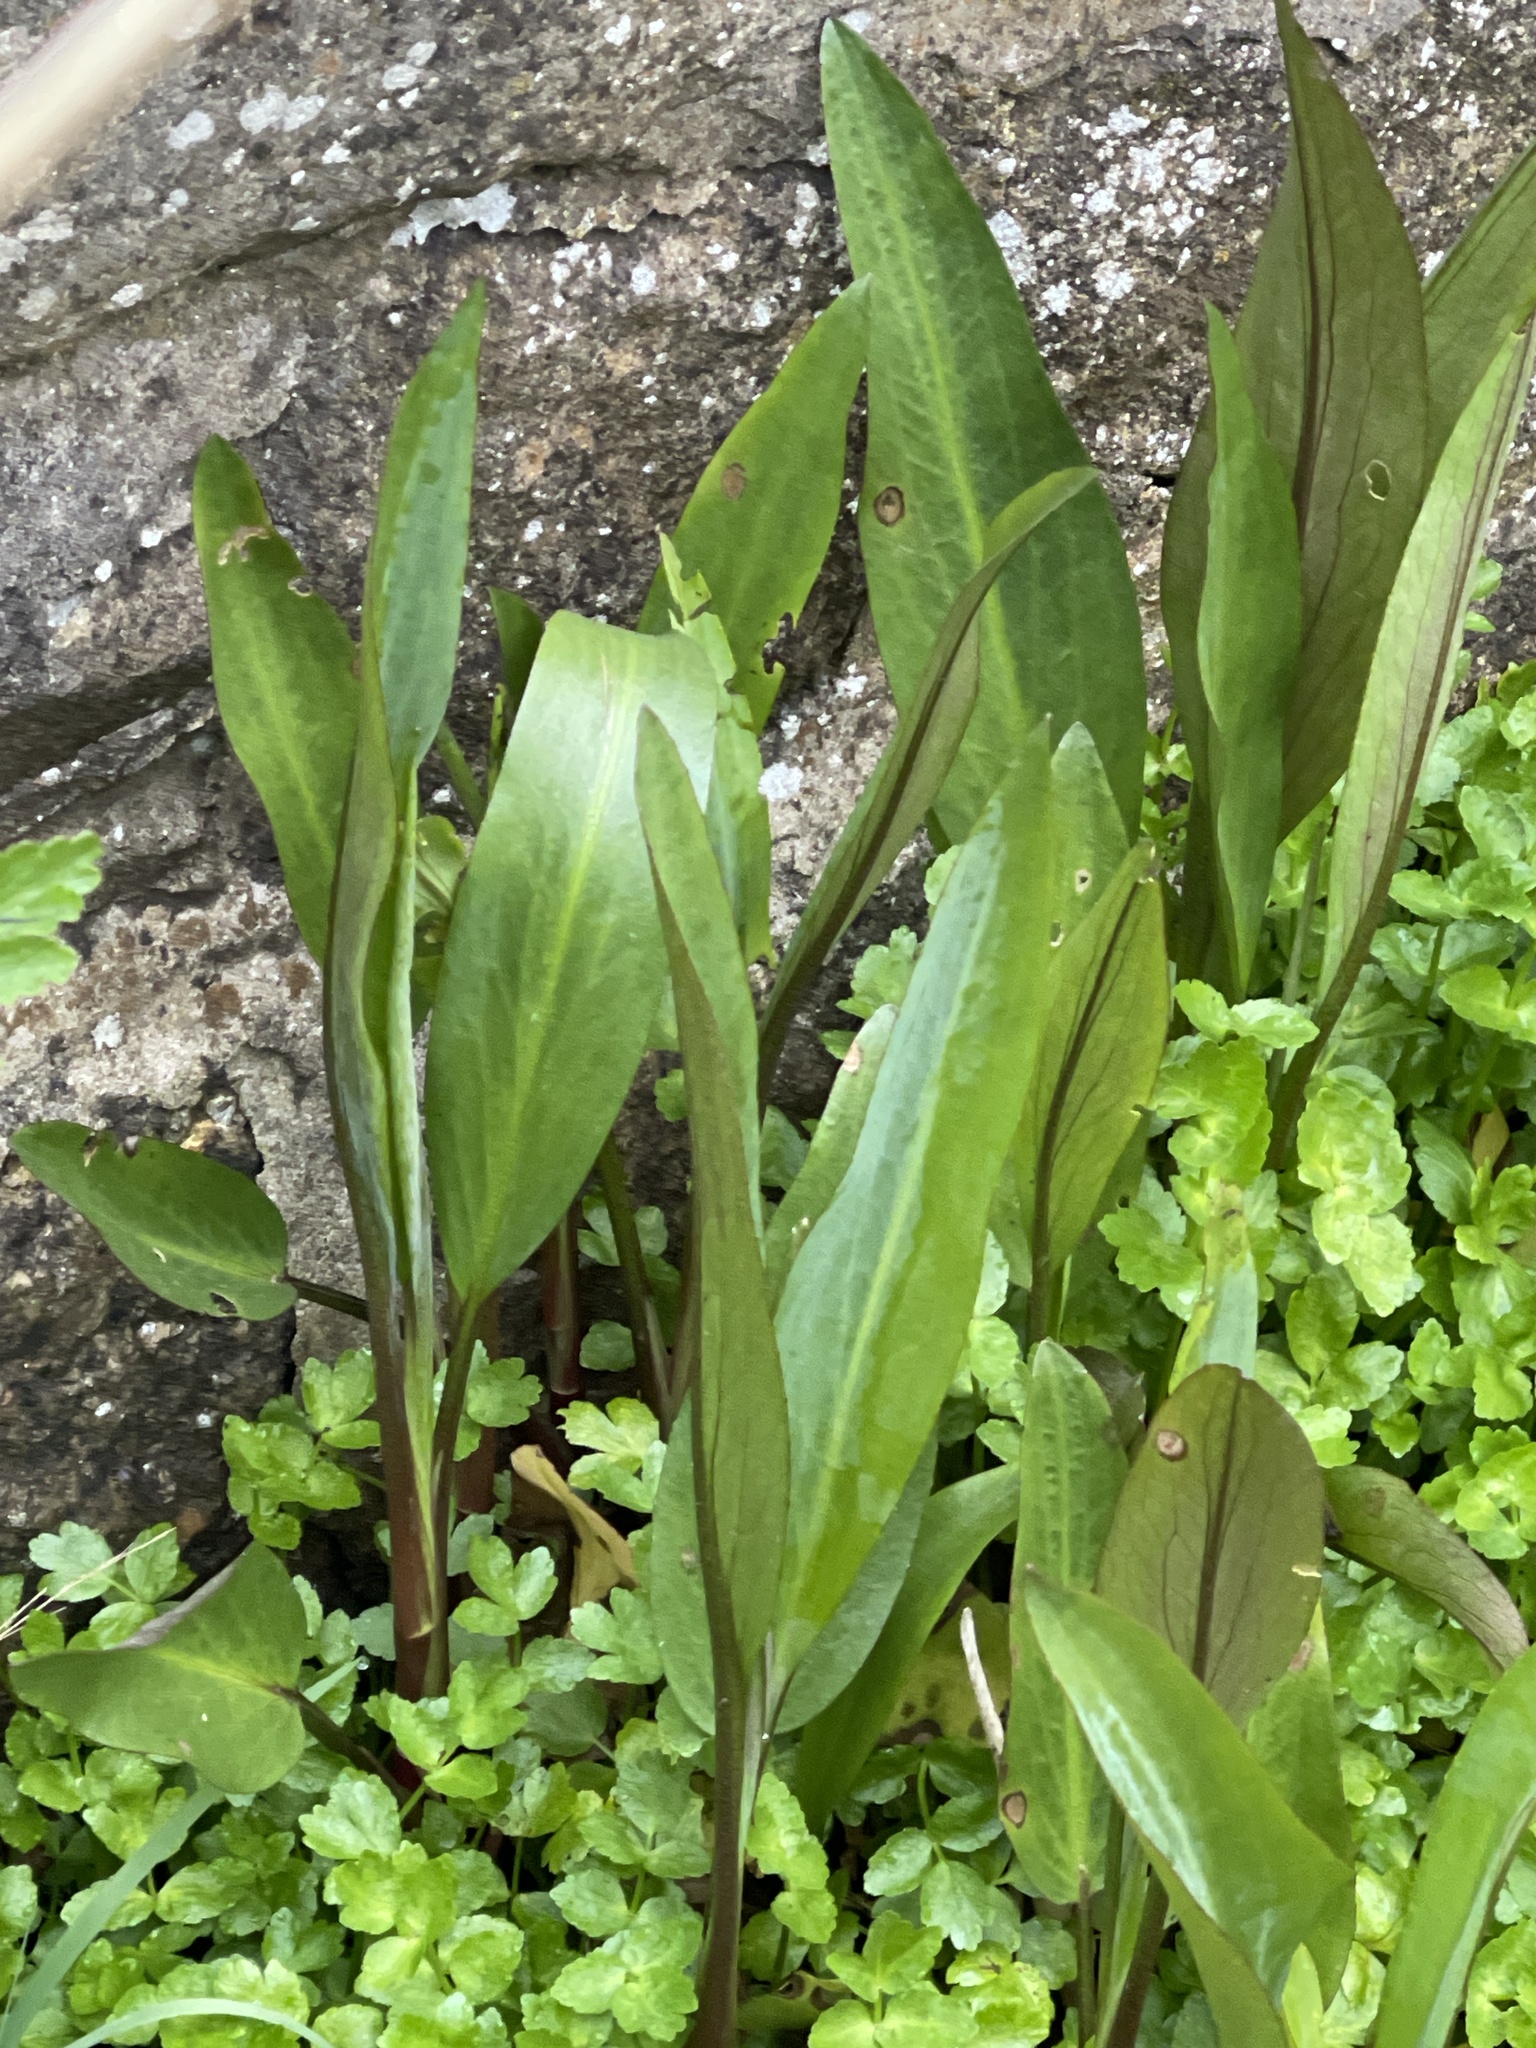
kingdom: Plantae
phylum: Tracheophyta
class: Magnoliopsida
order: Ranunculales
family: Ranunculaceae
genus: Ranunculus
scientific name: Ranunculus lingua
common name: Greater spearwort
